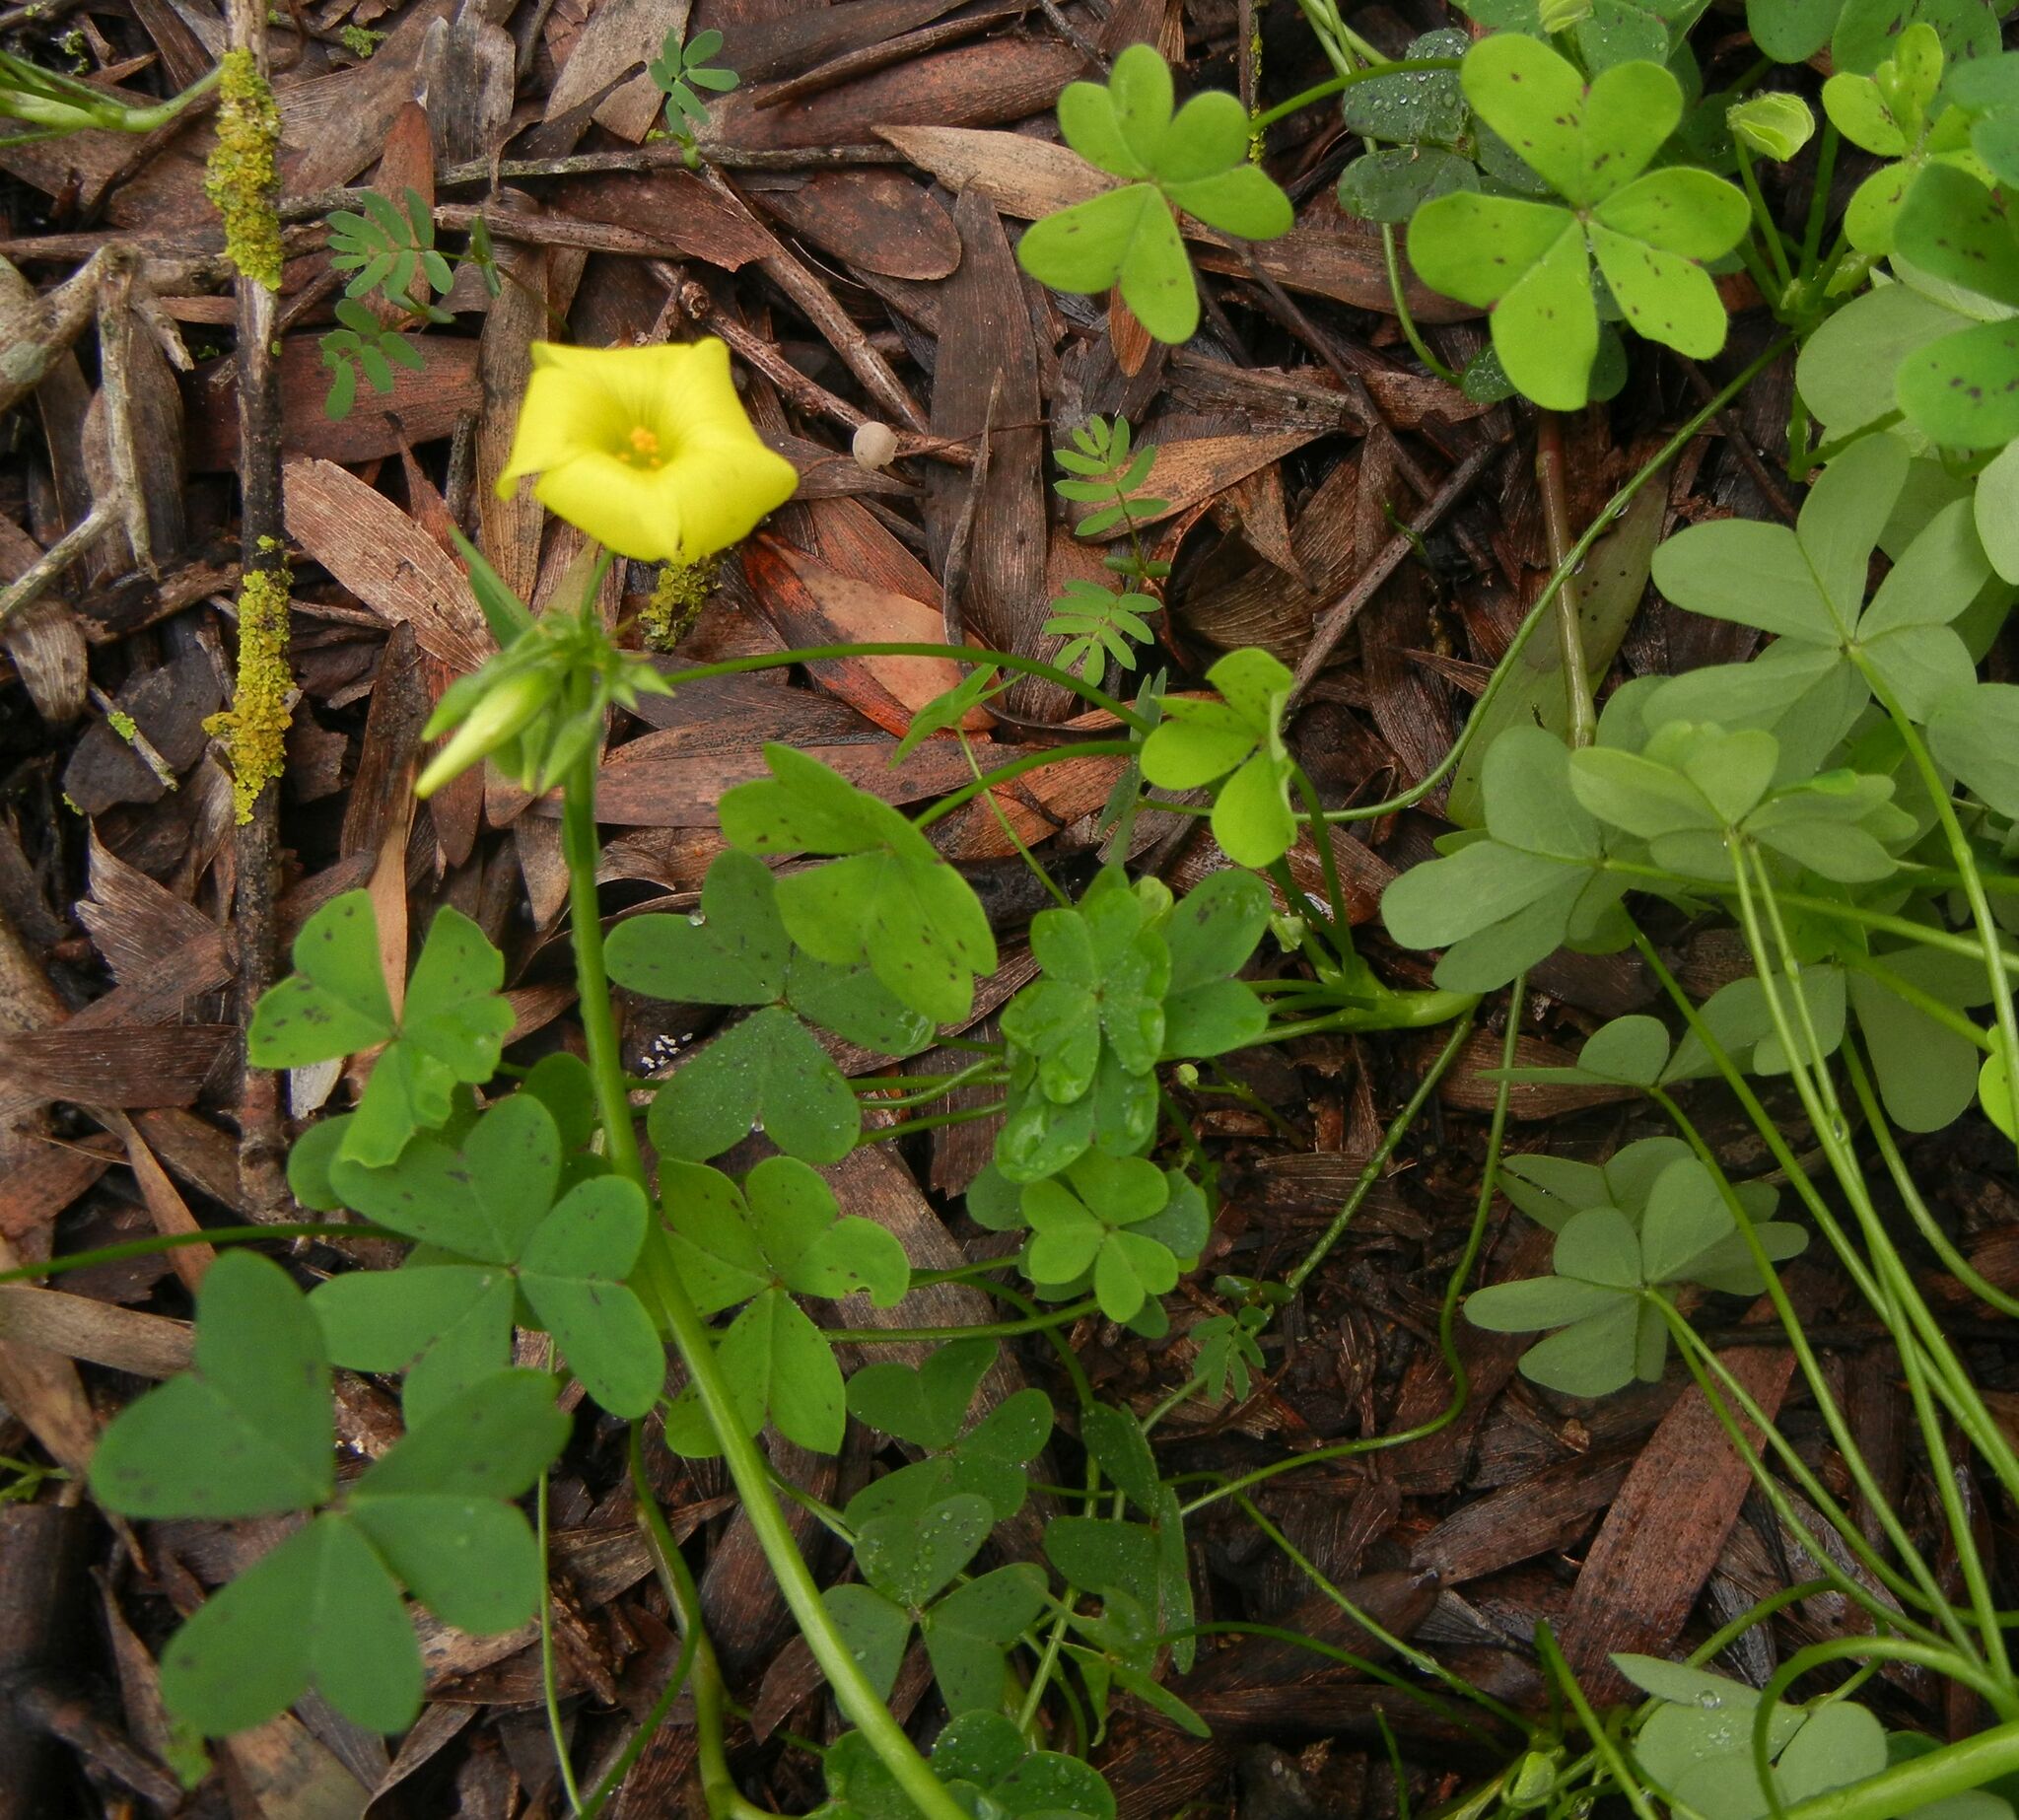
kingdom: Plantae
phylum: Tracheophyta
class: Magnoliopsida
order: Oxalidales
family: Oxalidaceae
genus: Oxalis
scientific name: Oxalis pes-caprae
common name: Bermuda-buttercup
